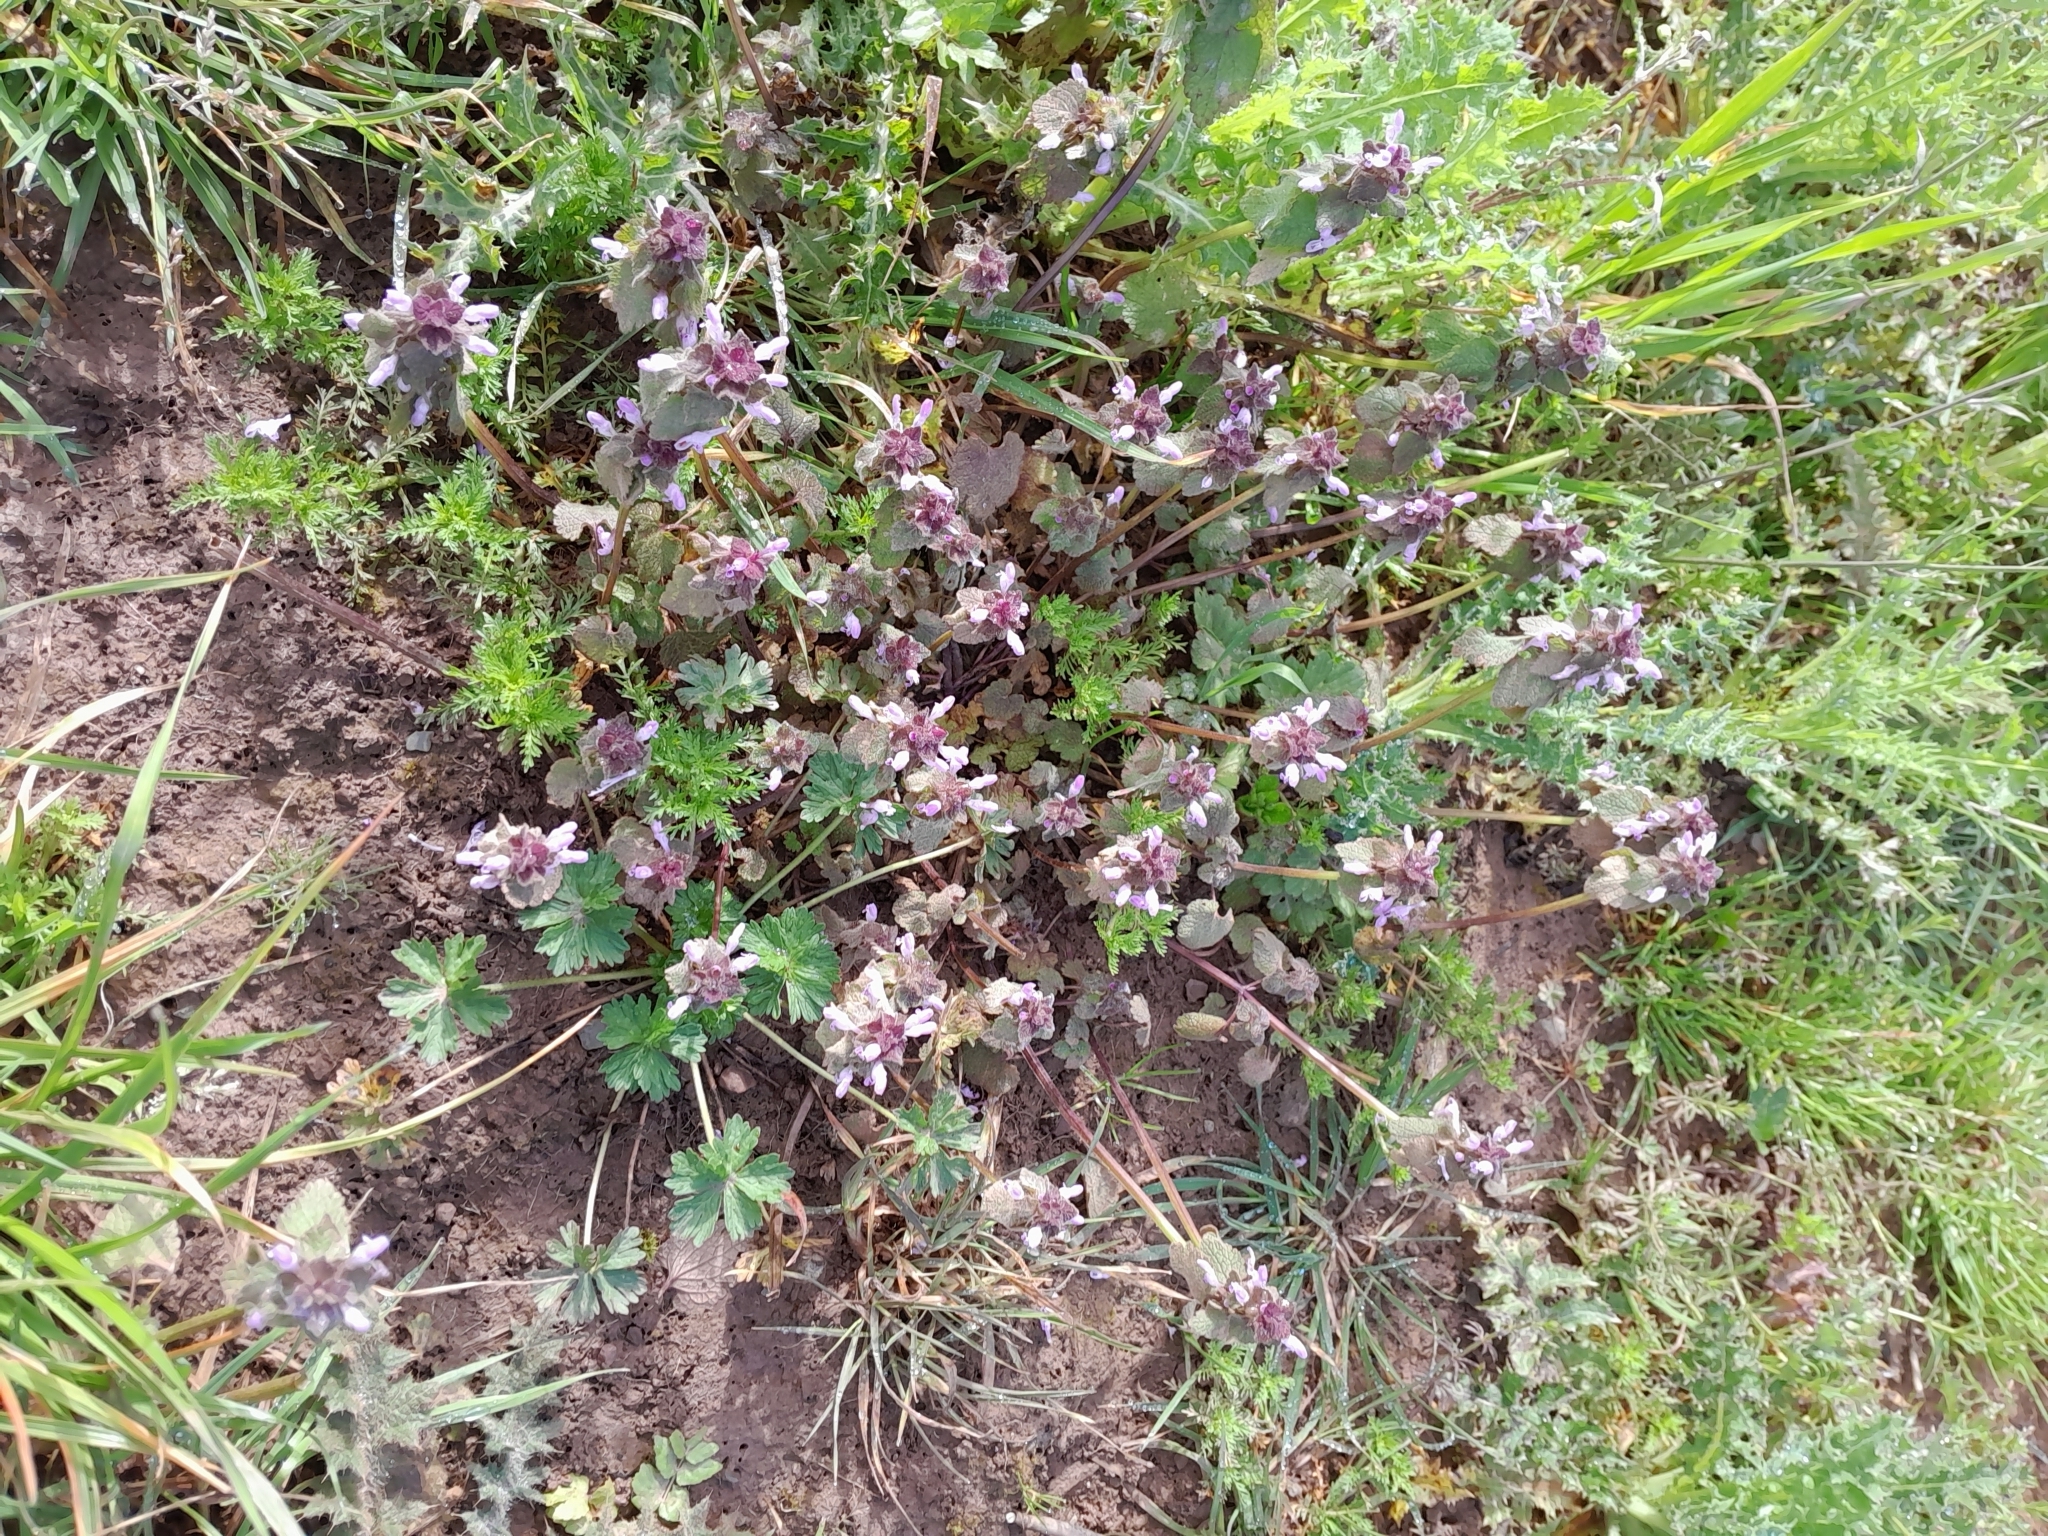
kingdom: Plantae
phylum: Tracheophyta
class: Magnoliopsida
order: Lamiales
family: Lamiaceae
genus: Lamium
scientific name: Lamium purpureum
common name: Red dead-nettle
